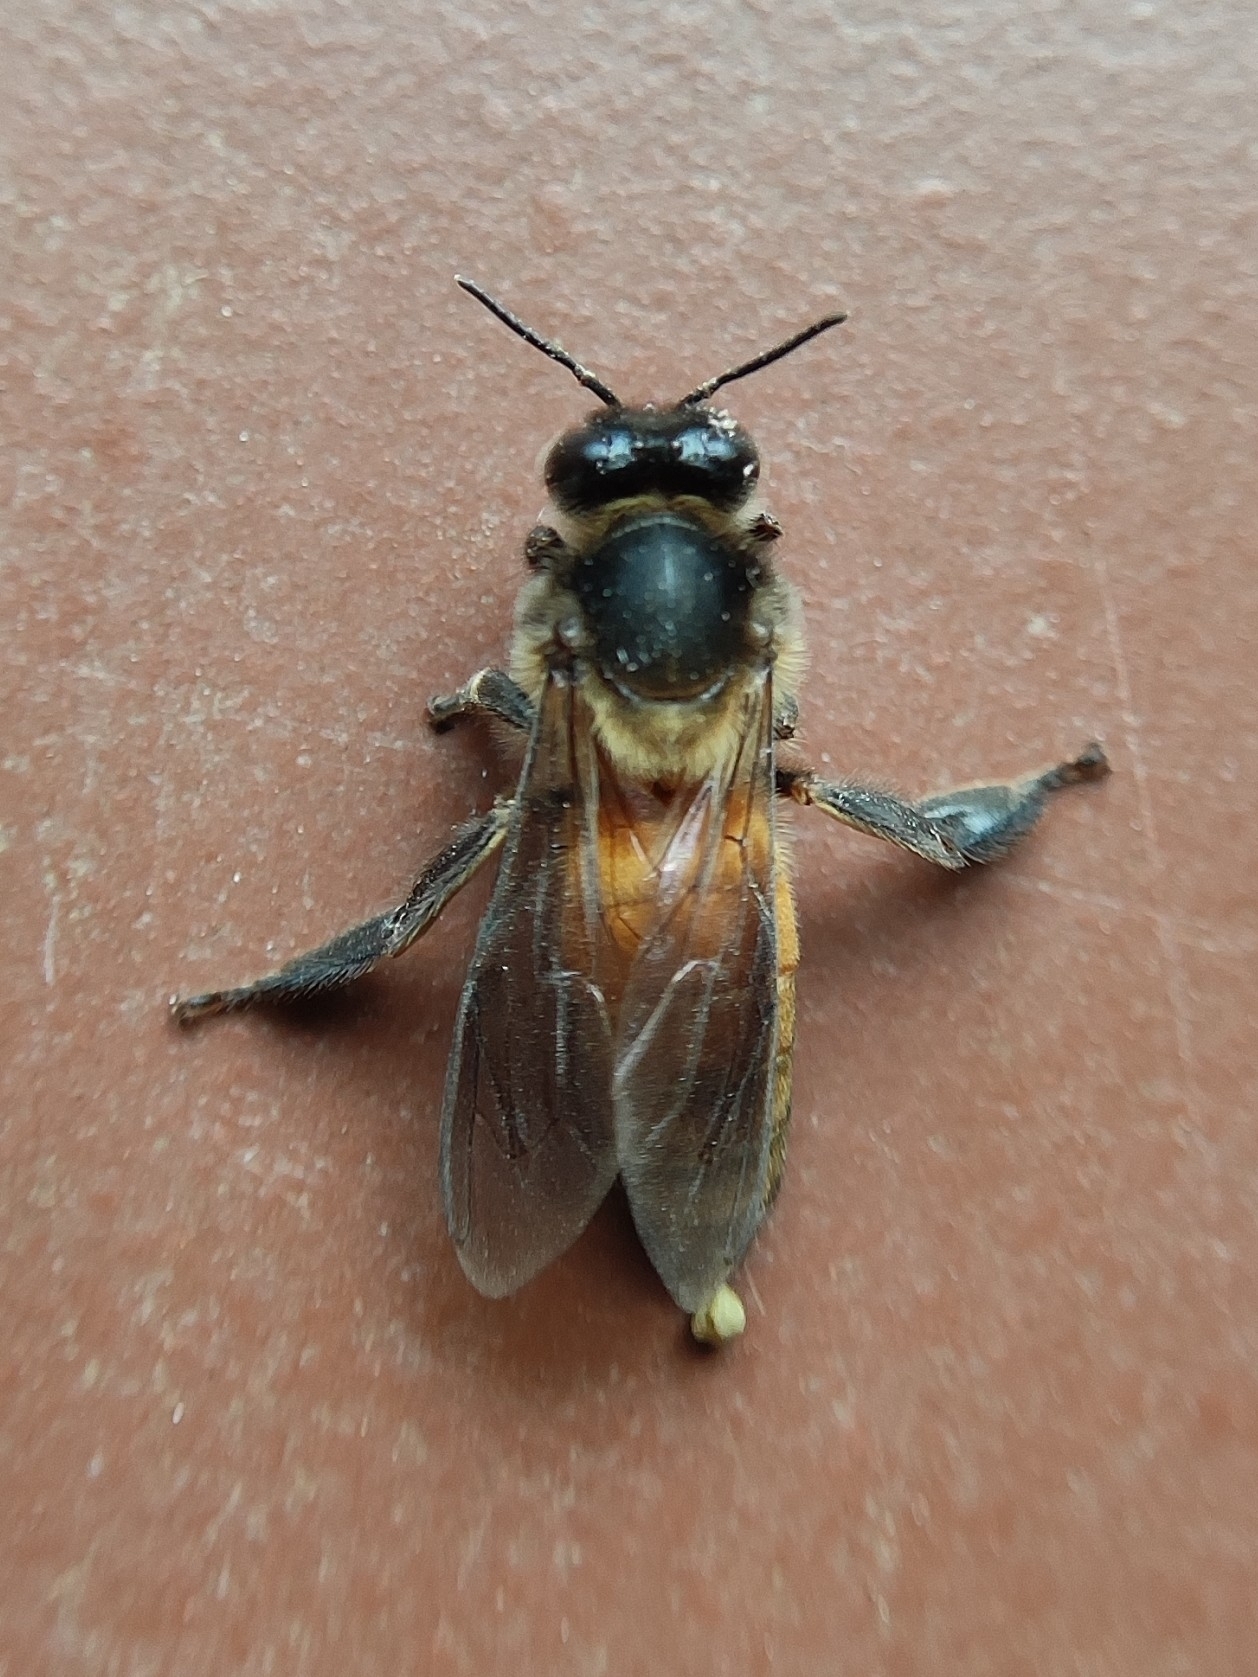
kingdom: Animalia
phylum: Arthropoda
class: Insecta
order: Hymenoptera
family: Apidae
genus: Apis
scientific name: Apis dorsata
